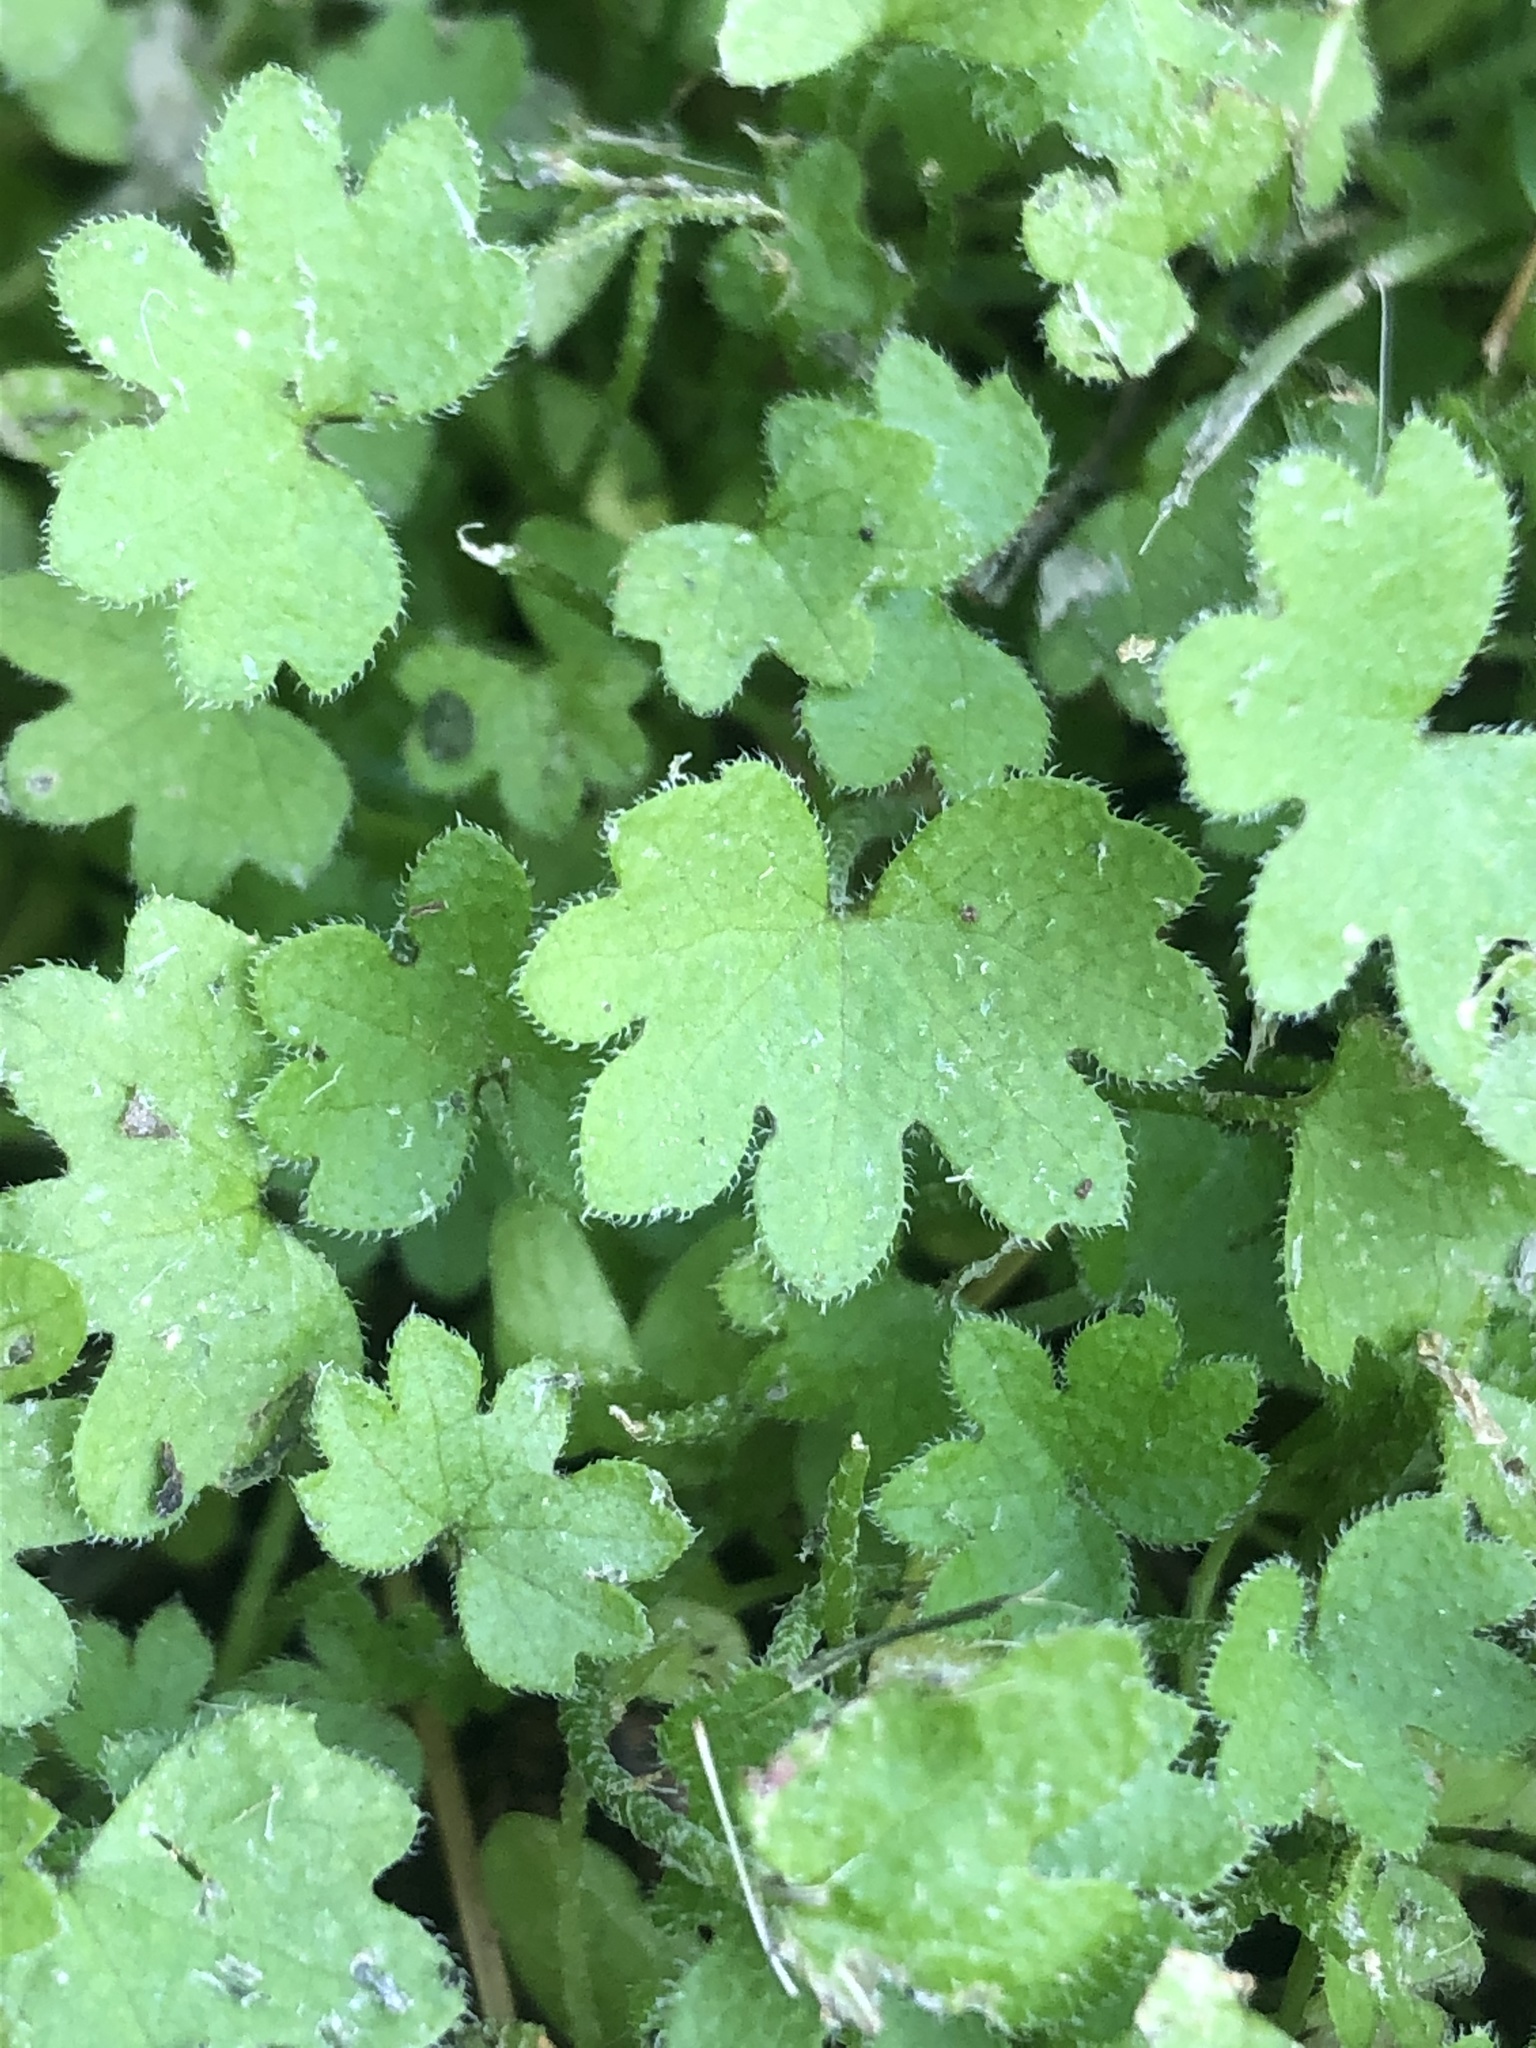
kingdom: Plantae
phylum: Tracheophyta
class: Magnoliopsida
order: Apiales
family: Apiaceae
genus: Bowlesia
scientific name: Bowlesia incana
